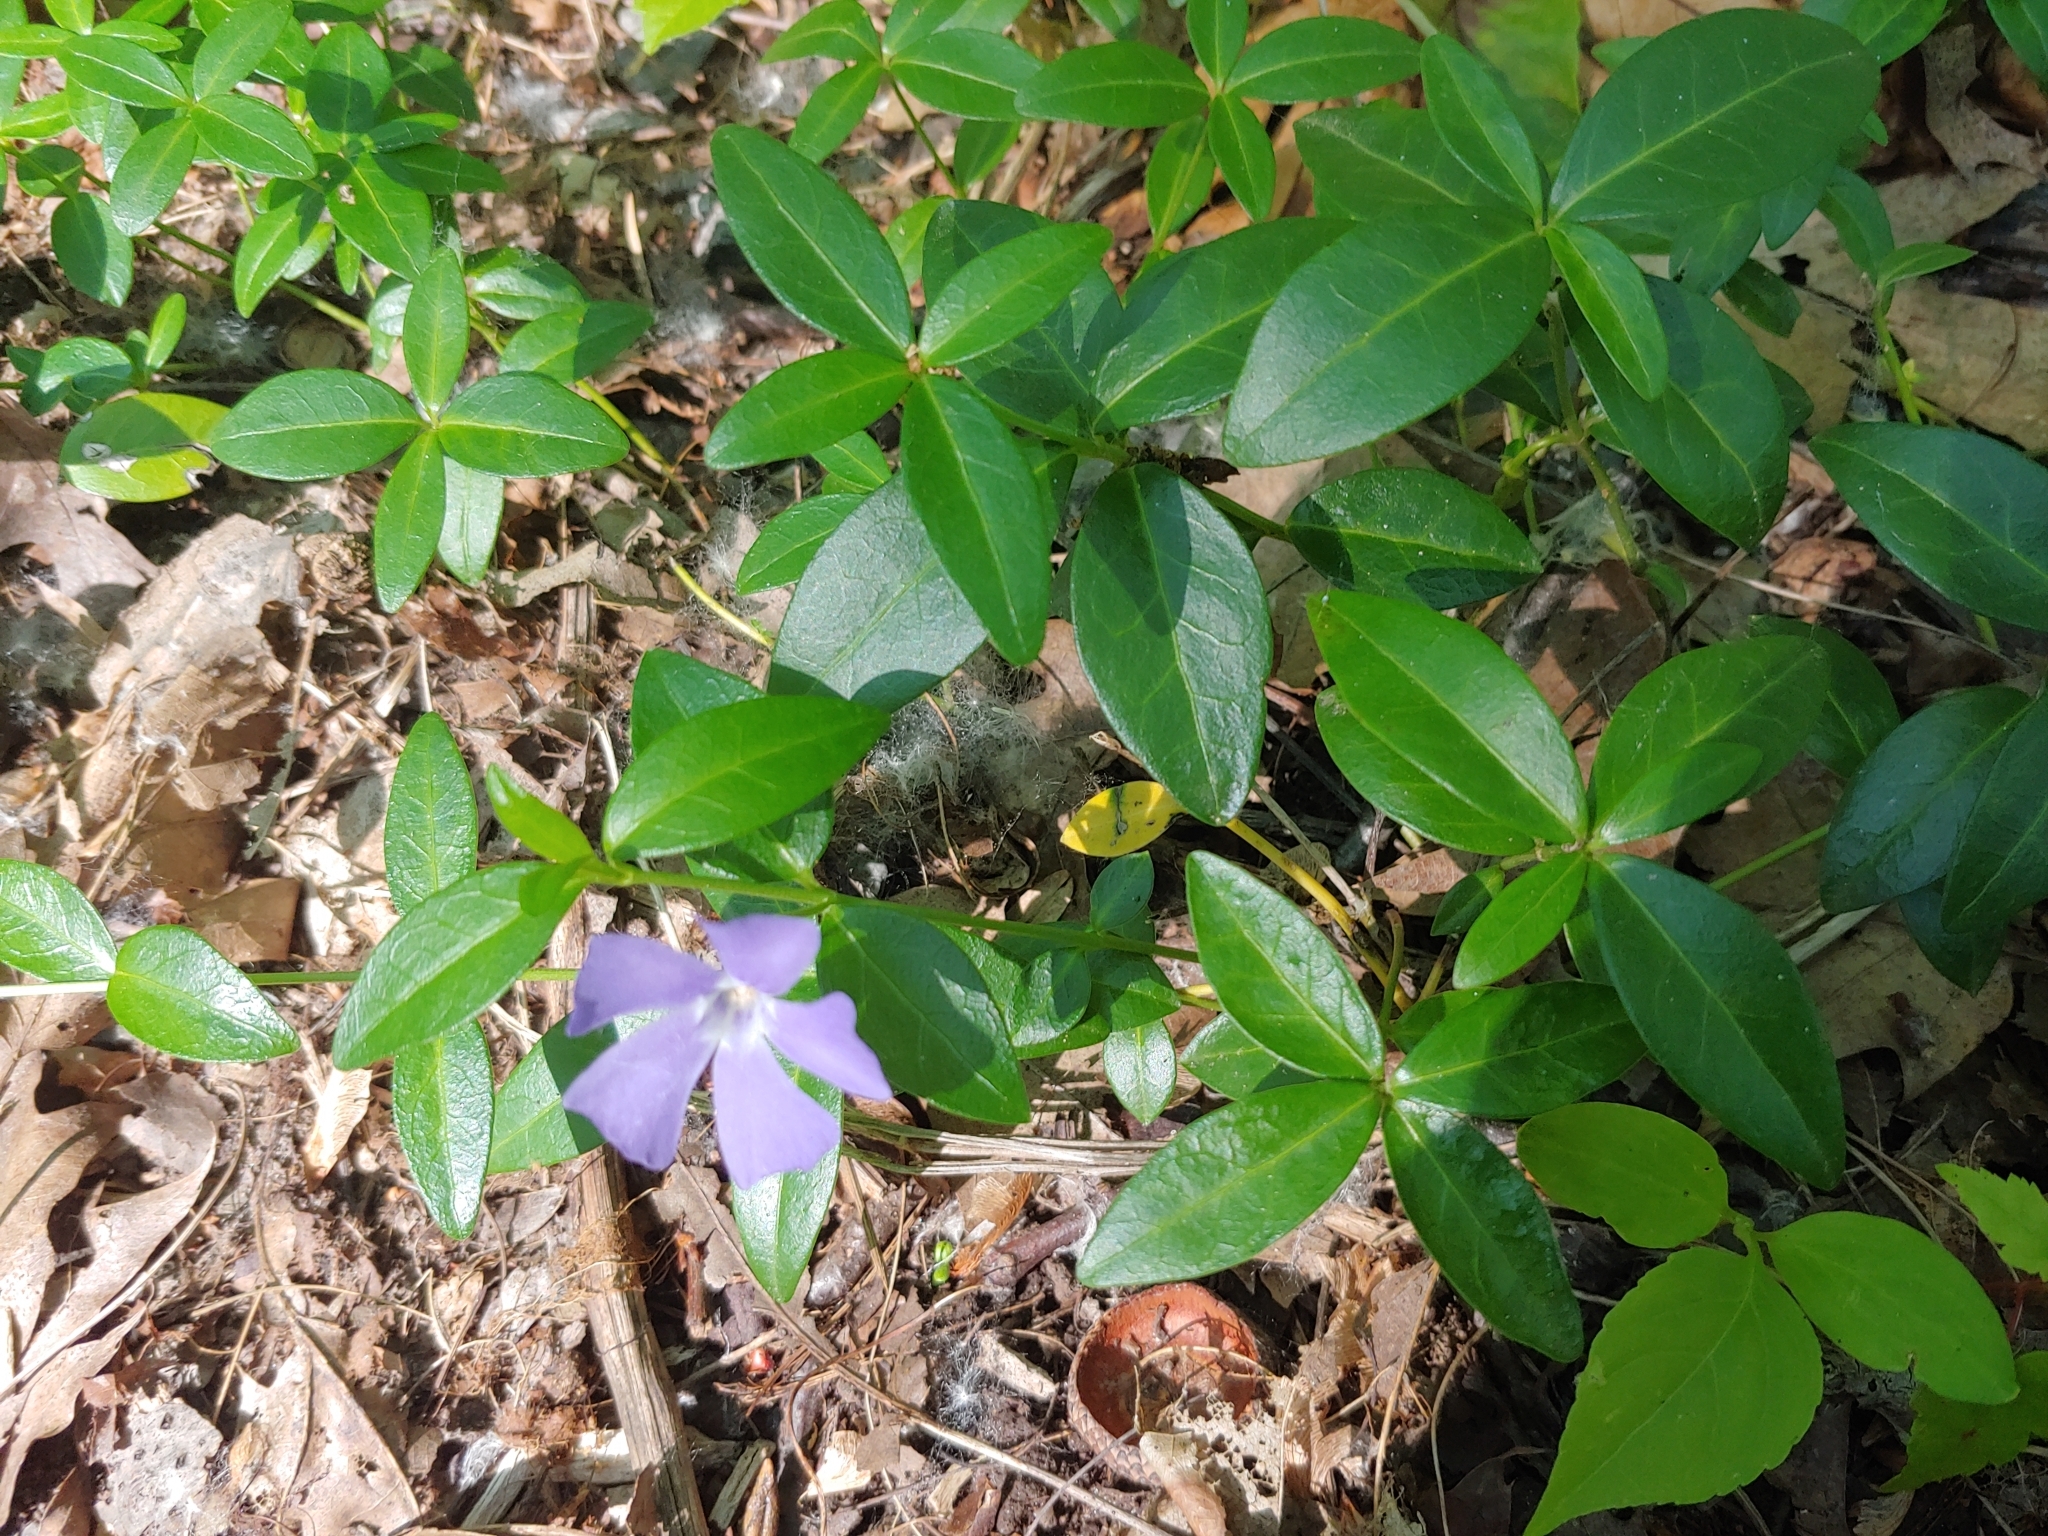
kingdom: Plantae
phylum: Tracheophyta
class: Magnoliopsida
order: Gentianales
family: Apocynaceae
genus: Vinca
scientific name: Vinca minor
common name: Lesser periwinkle
